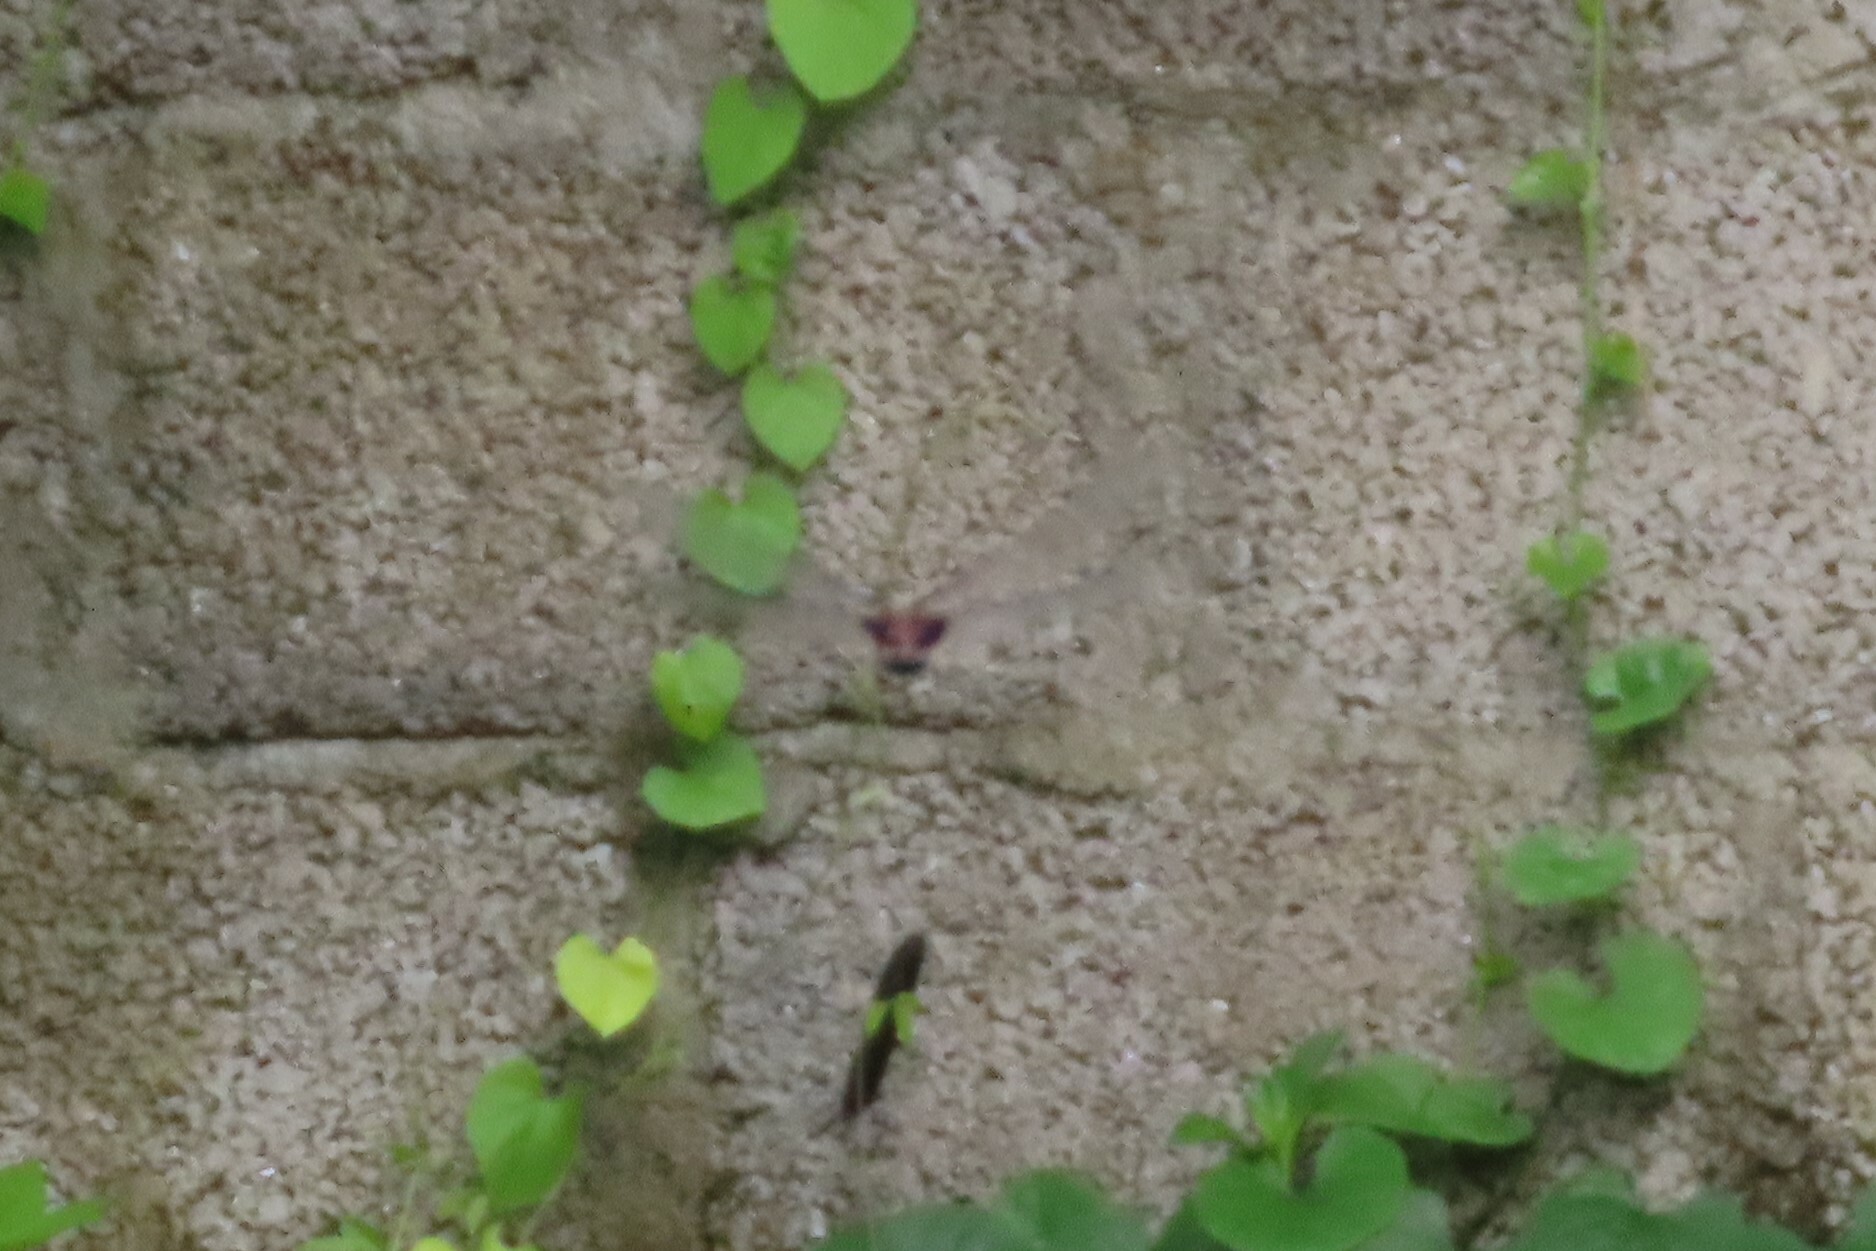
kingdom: Animalia
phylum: Arthropoda
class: Insecta
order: Odonata
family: Libellulidae
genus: Tramea
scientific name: Tramea limbata
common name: Ferruginous glider
